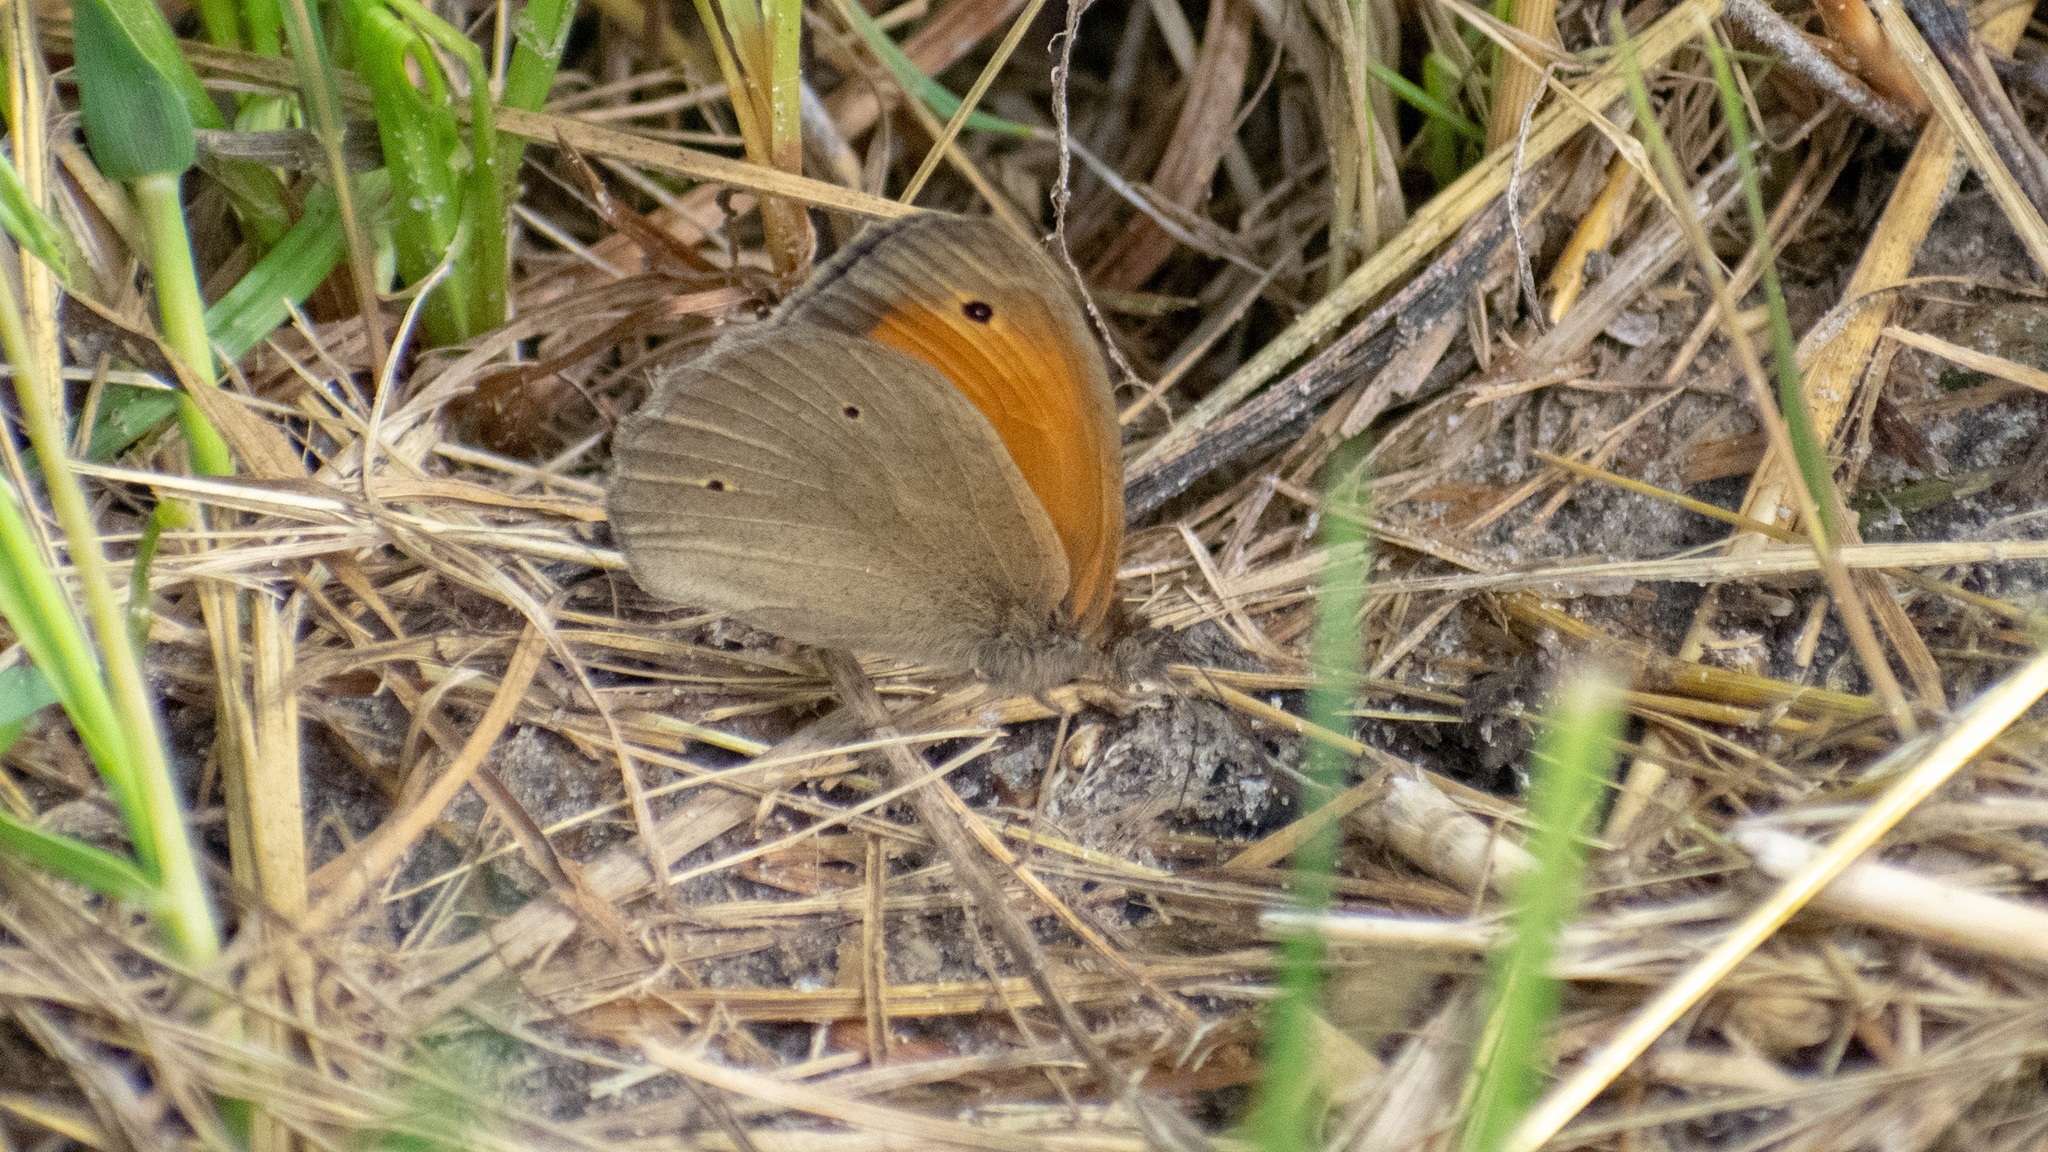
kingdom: Animalia
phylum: Arthropoda
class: Insecta
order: Lepidoptera
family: Nymphalidae
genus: Maniola
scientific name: Maniola jurtina
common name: Meadow brown
